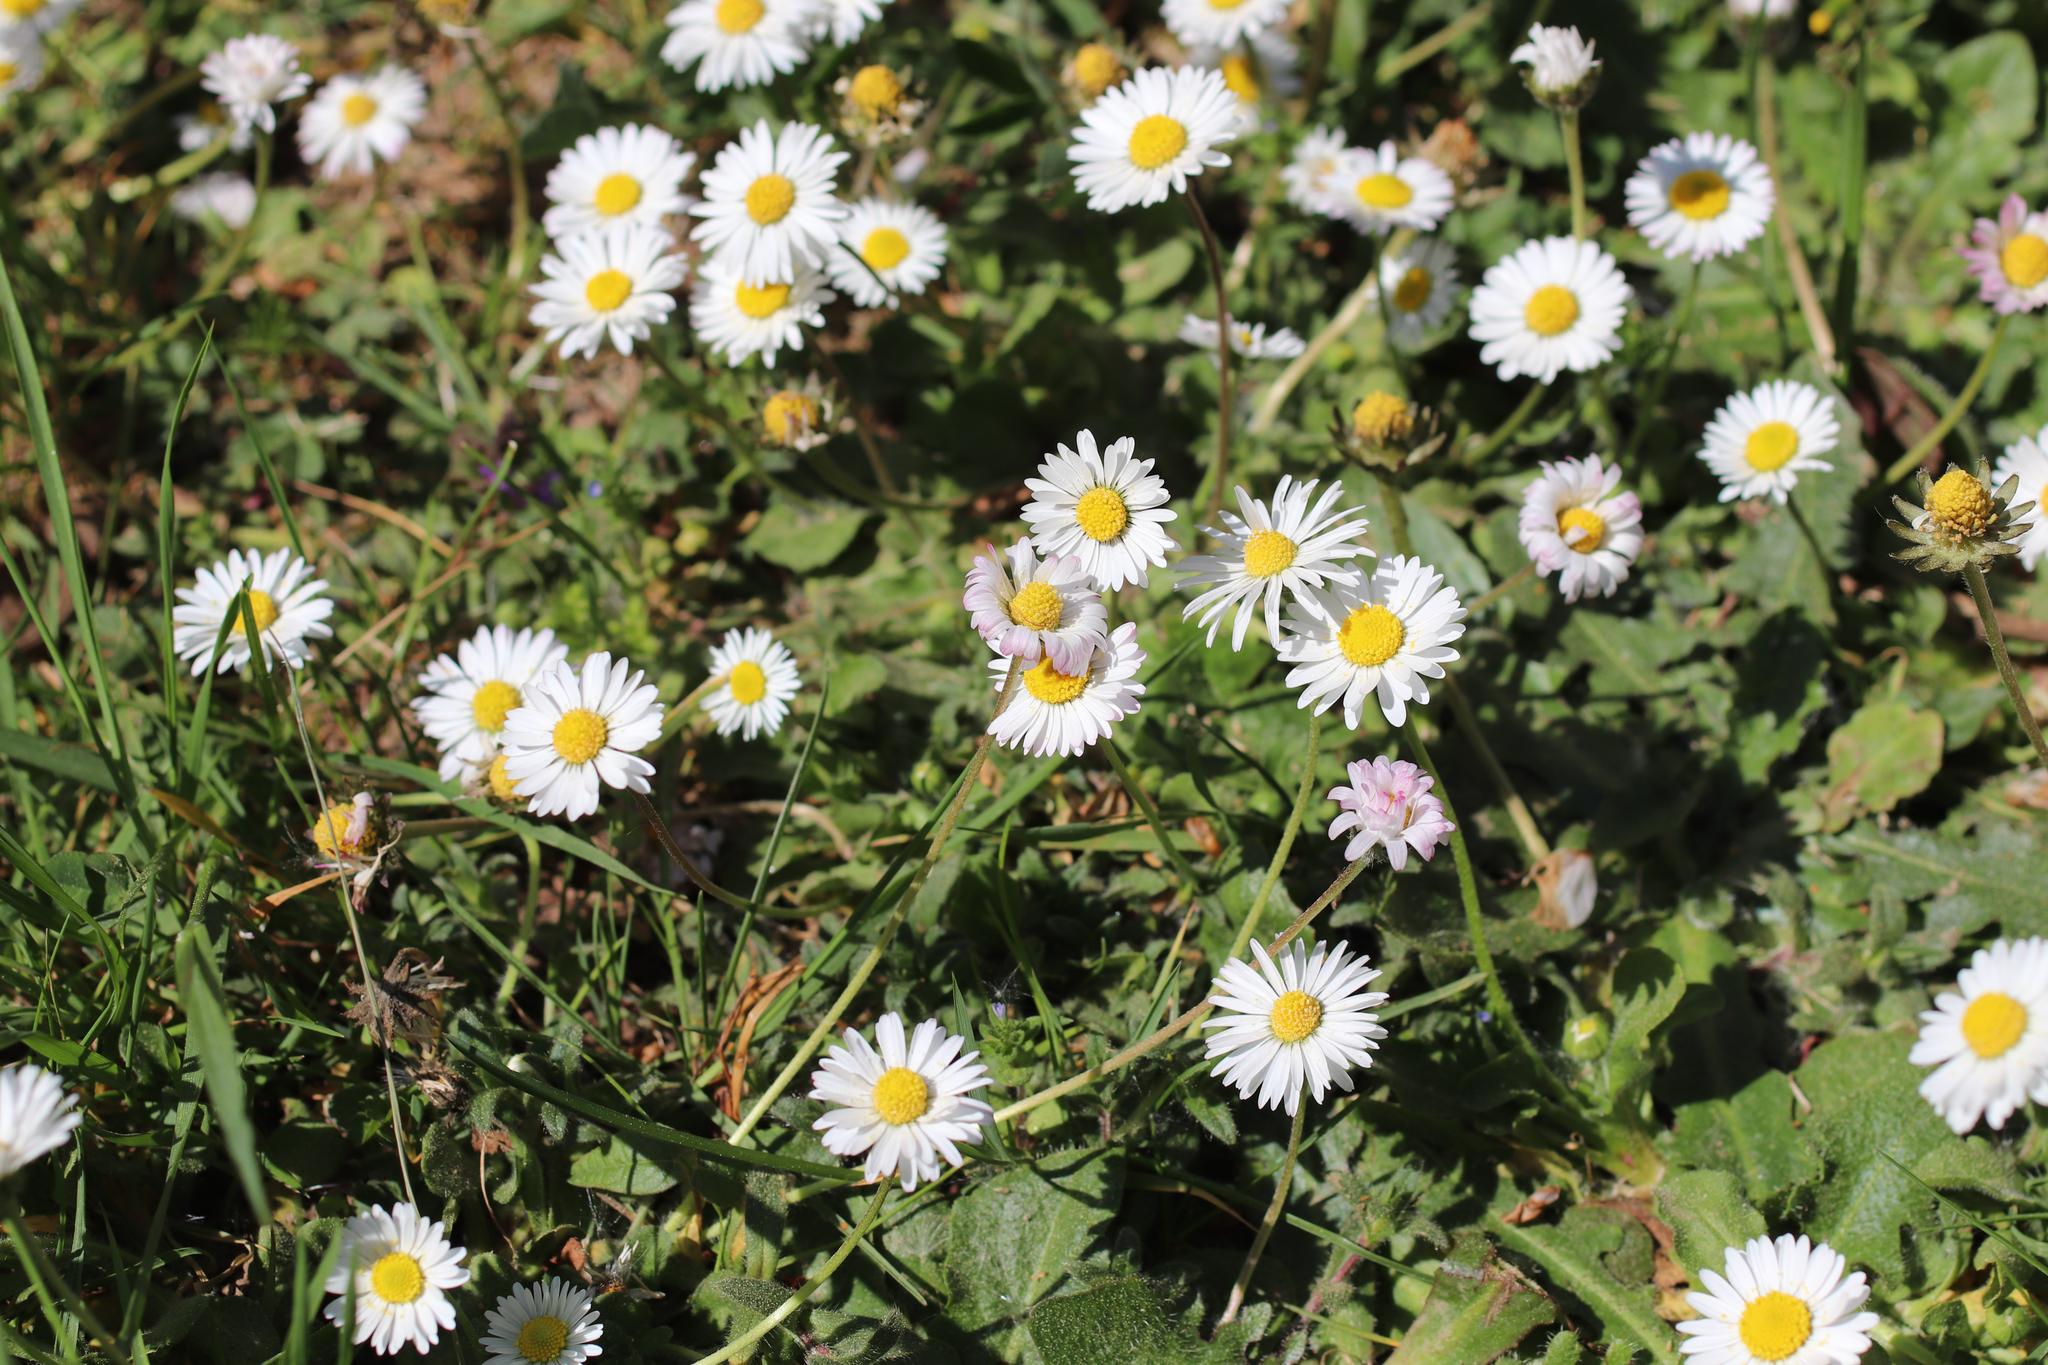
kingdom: Plantae
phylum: Tracheophyta
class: Magnoliopsida
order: Asterales
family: Asteraceae
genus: Bellis
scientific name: Bellis perennis
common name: Lawndaisy
